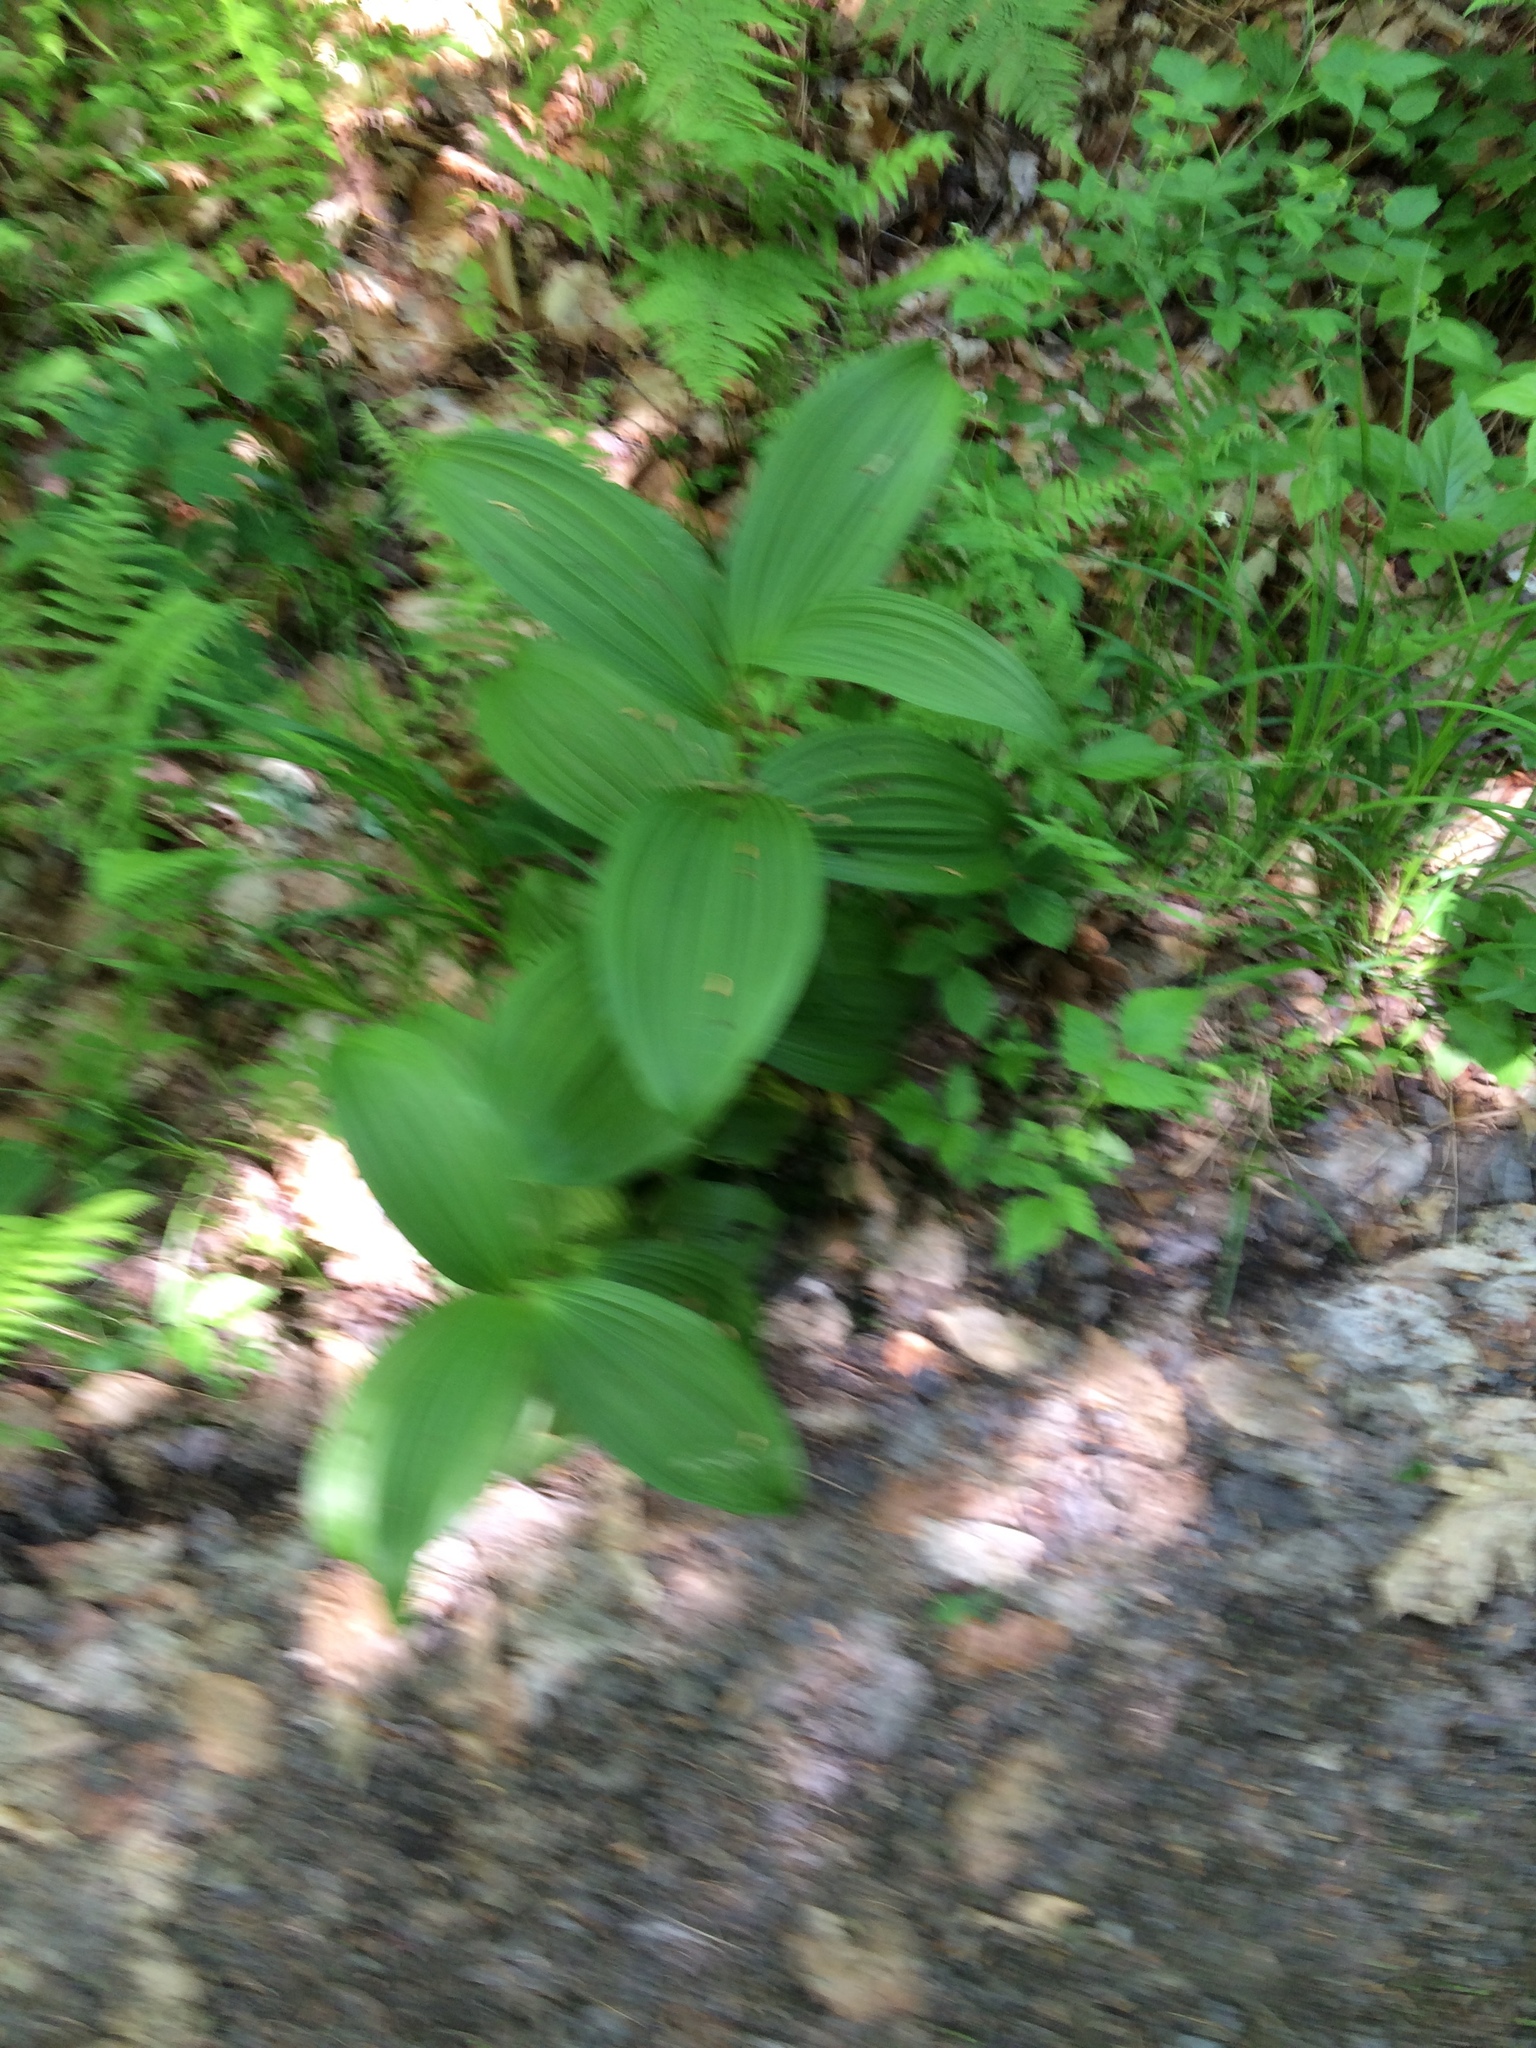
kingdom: Plantae
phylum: Tracheophyta
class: Liliopsida
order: Liliales
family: Melanthiaceae
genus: Veratrum
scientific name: Veratrum viride
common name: American false hellebore
